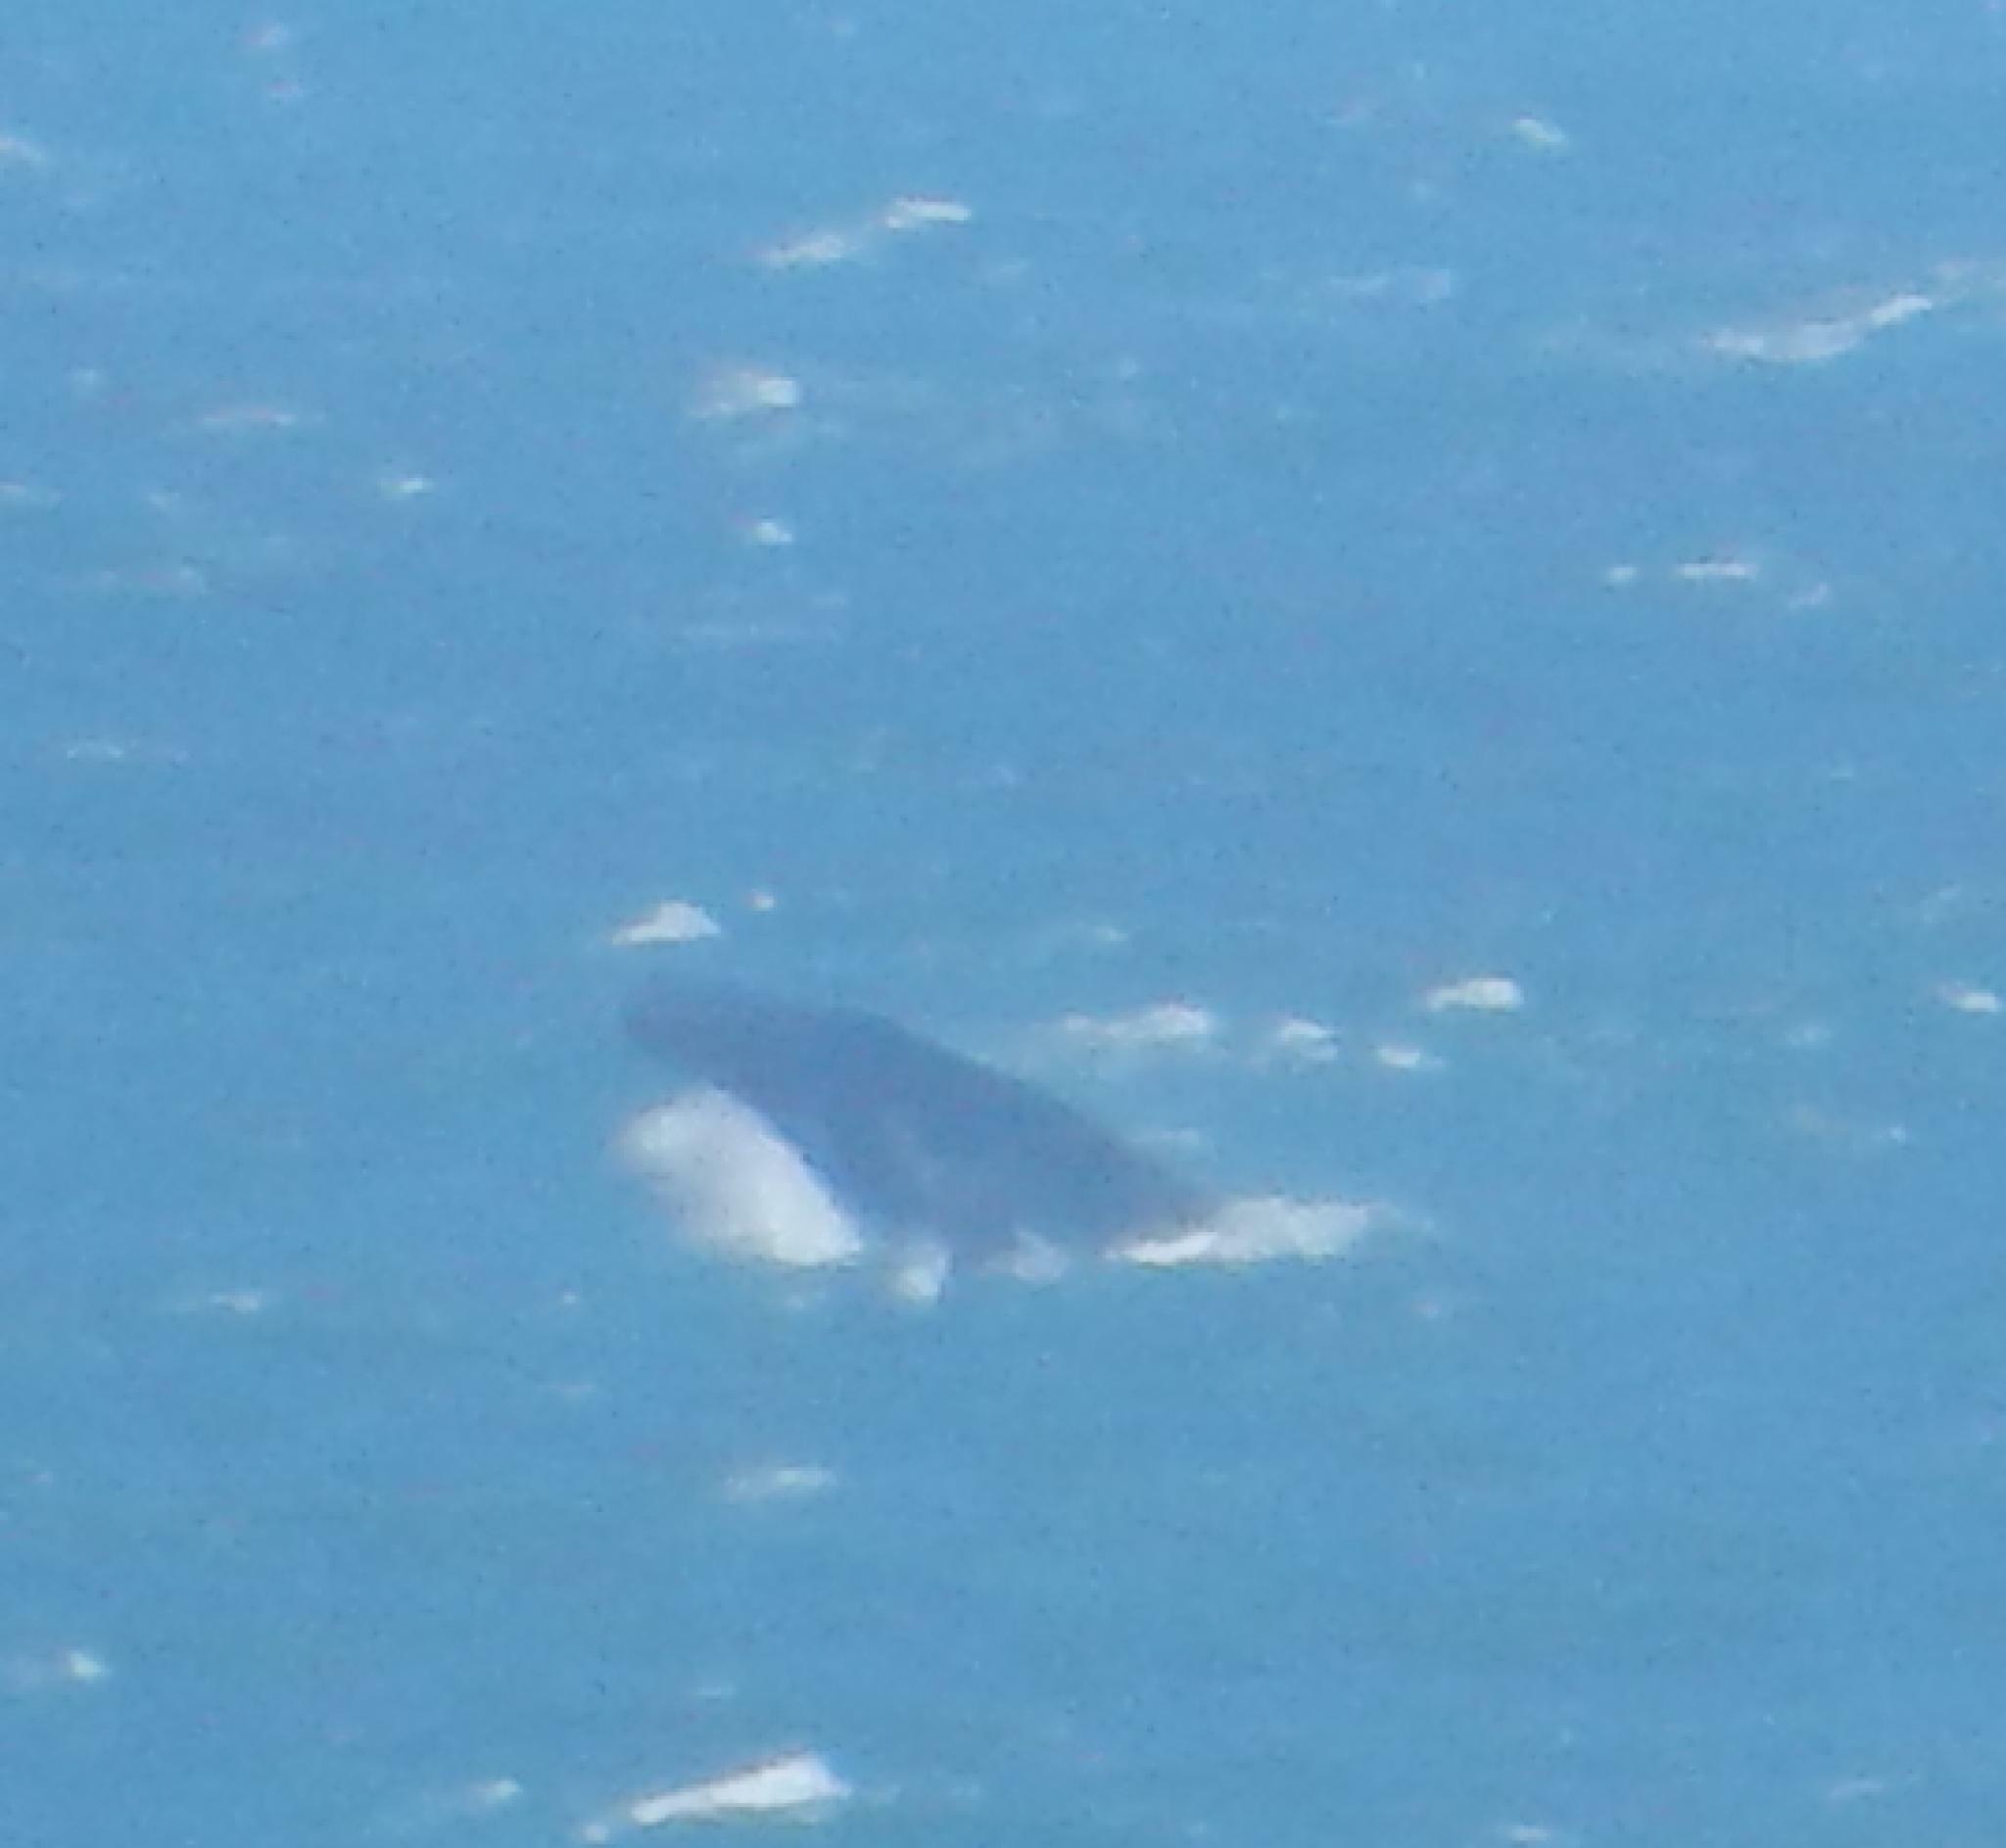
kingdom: Animalia
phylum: Chordata
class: Mammalia
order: Cetacea
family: Balaenopteridae
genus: Megaptera
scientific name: Megaptera novaeangliae
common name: Humpback whale
